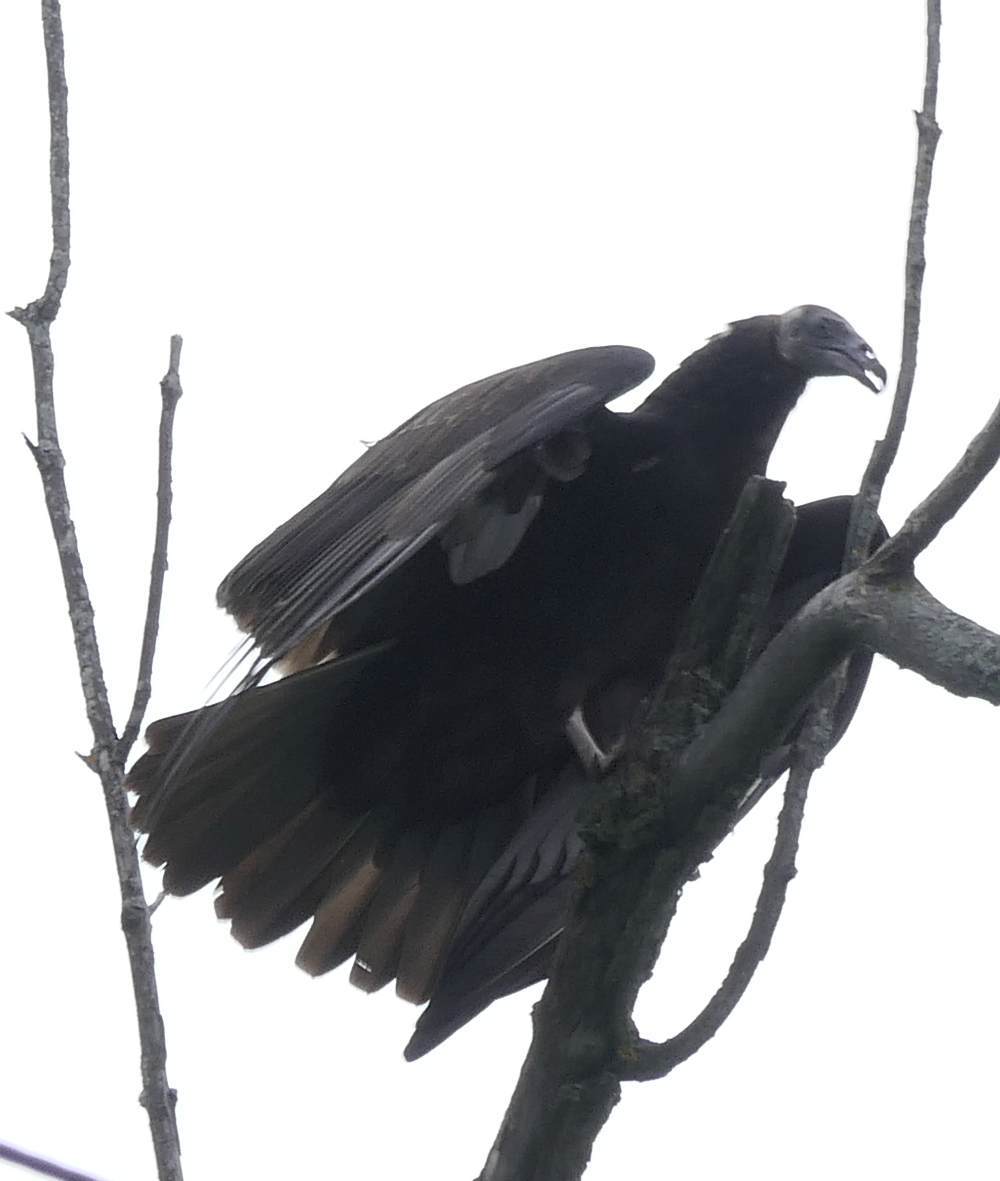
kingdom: Animalia
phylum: Chordata
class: Aves
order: Accipitriformes
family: Cathartidae
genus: Cathartes
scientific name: Cathartes aura
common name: Turkey vulture
